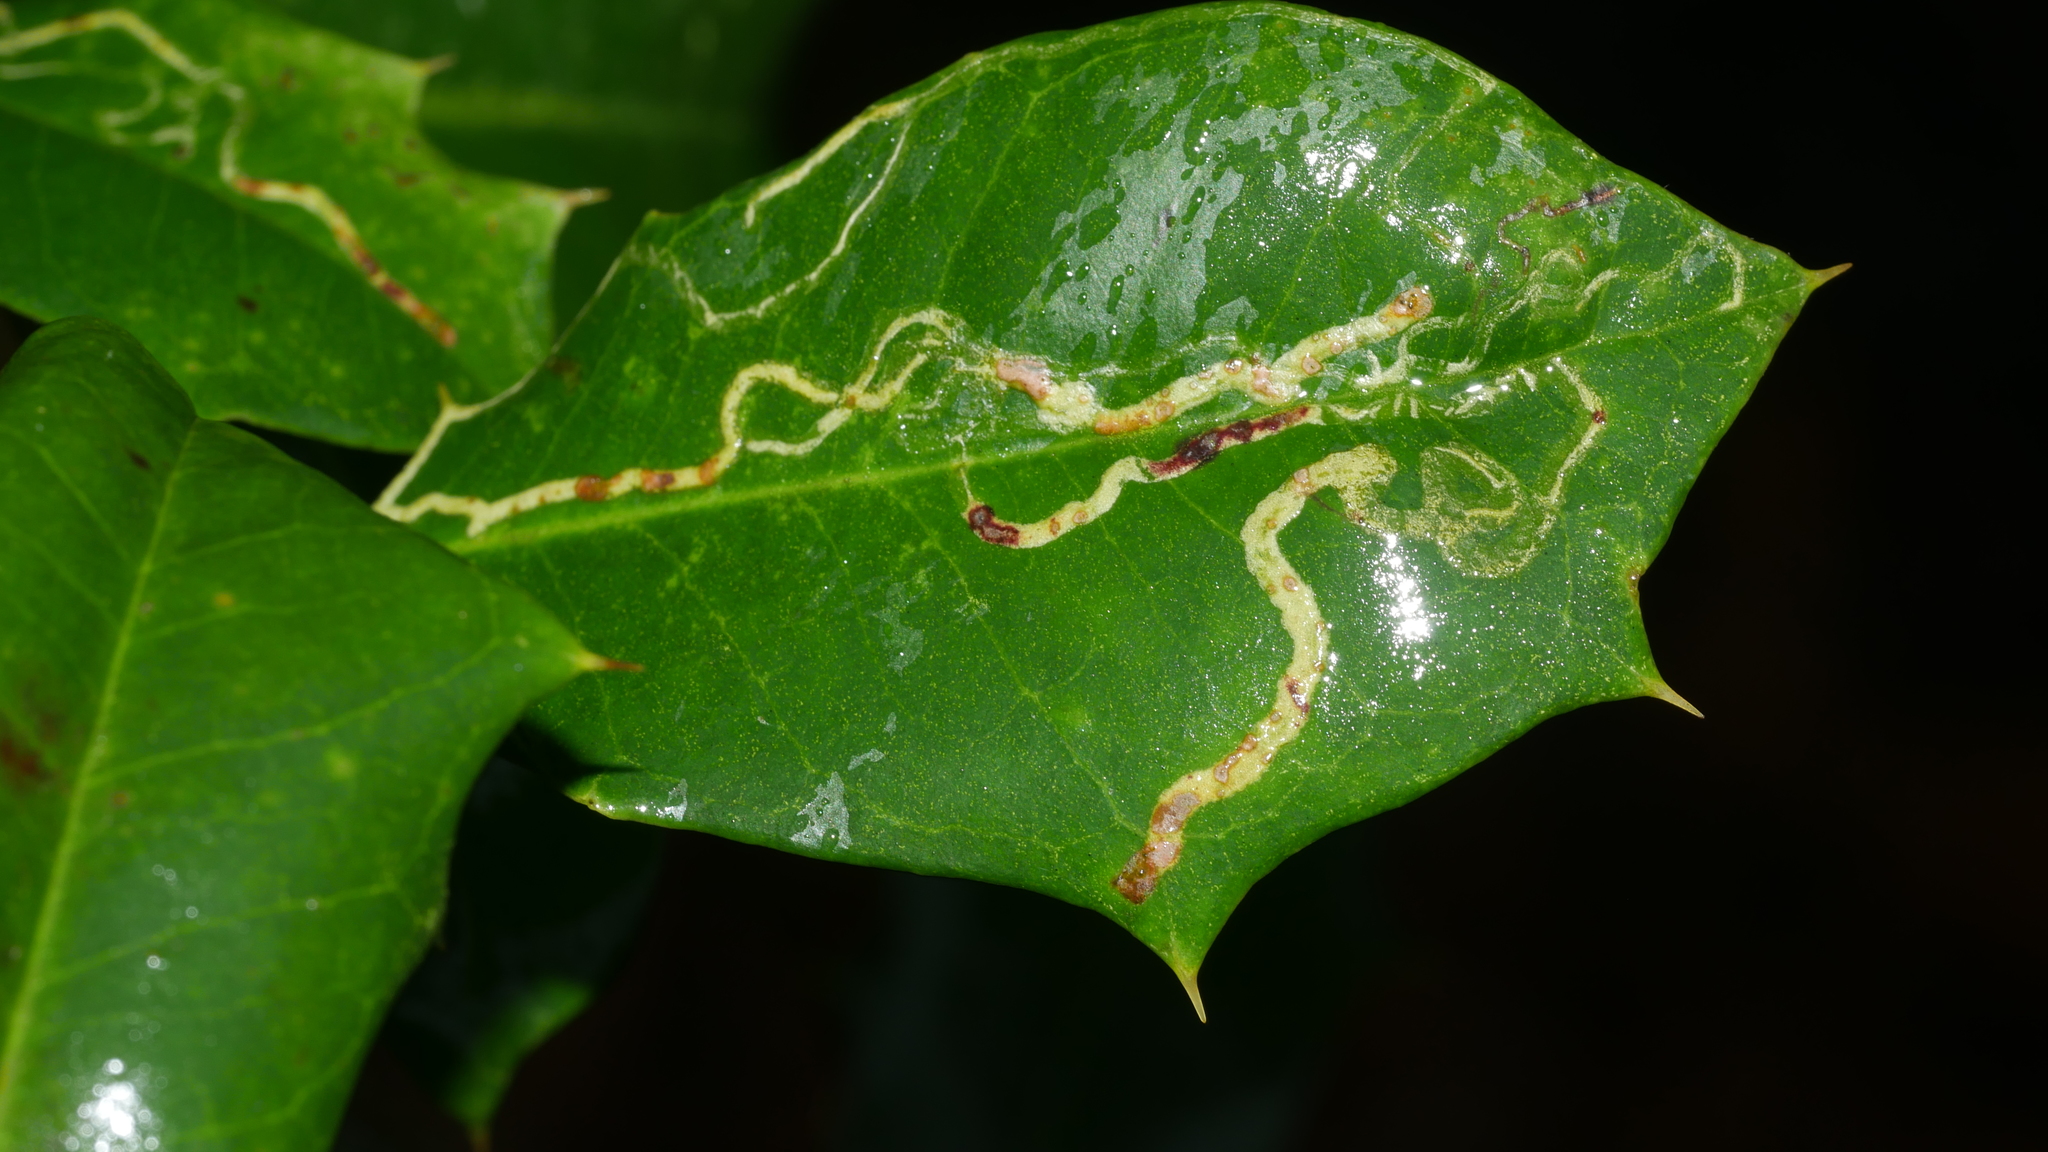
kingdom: Animalia
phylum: Arthropoda
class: Insecta
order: Diptera
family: Agromyzidae
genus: Phytomyza
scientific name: Phytomyza opacae
